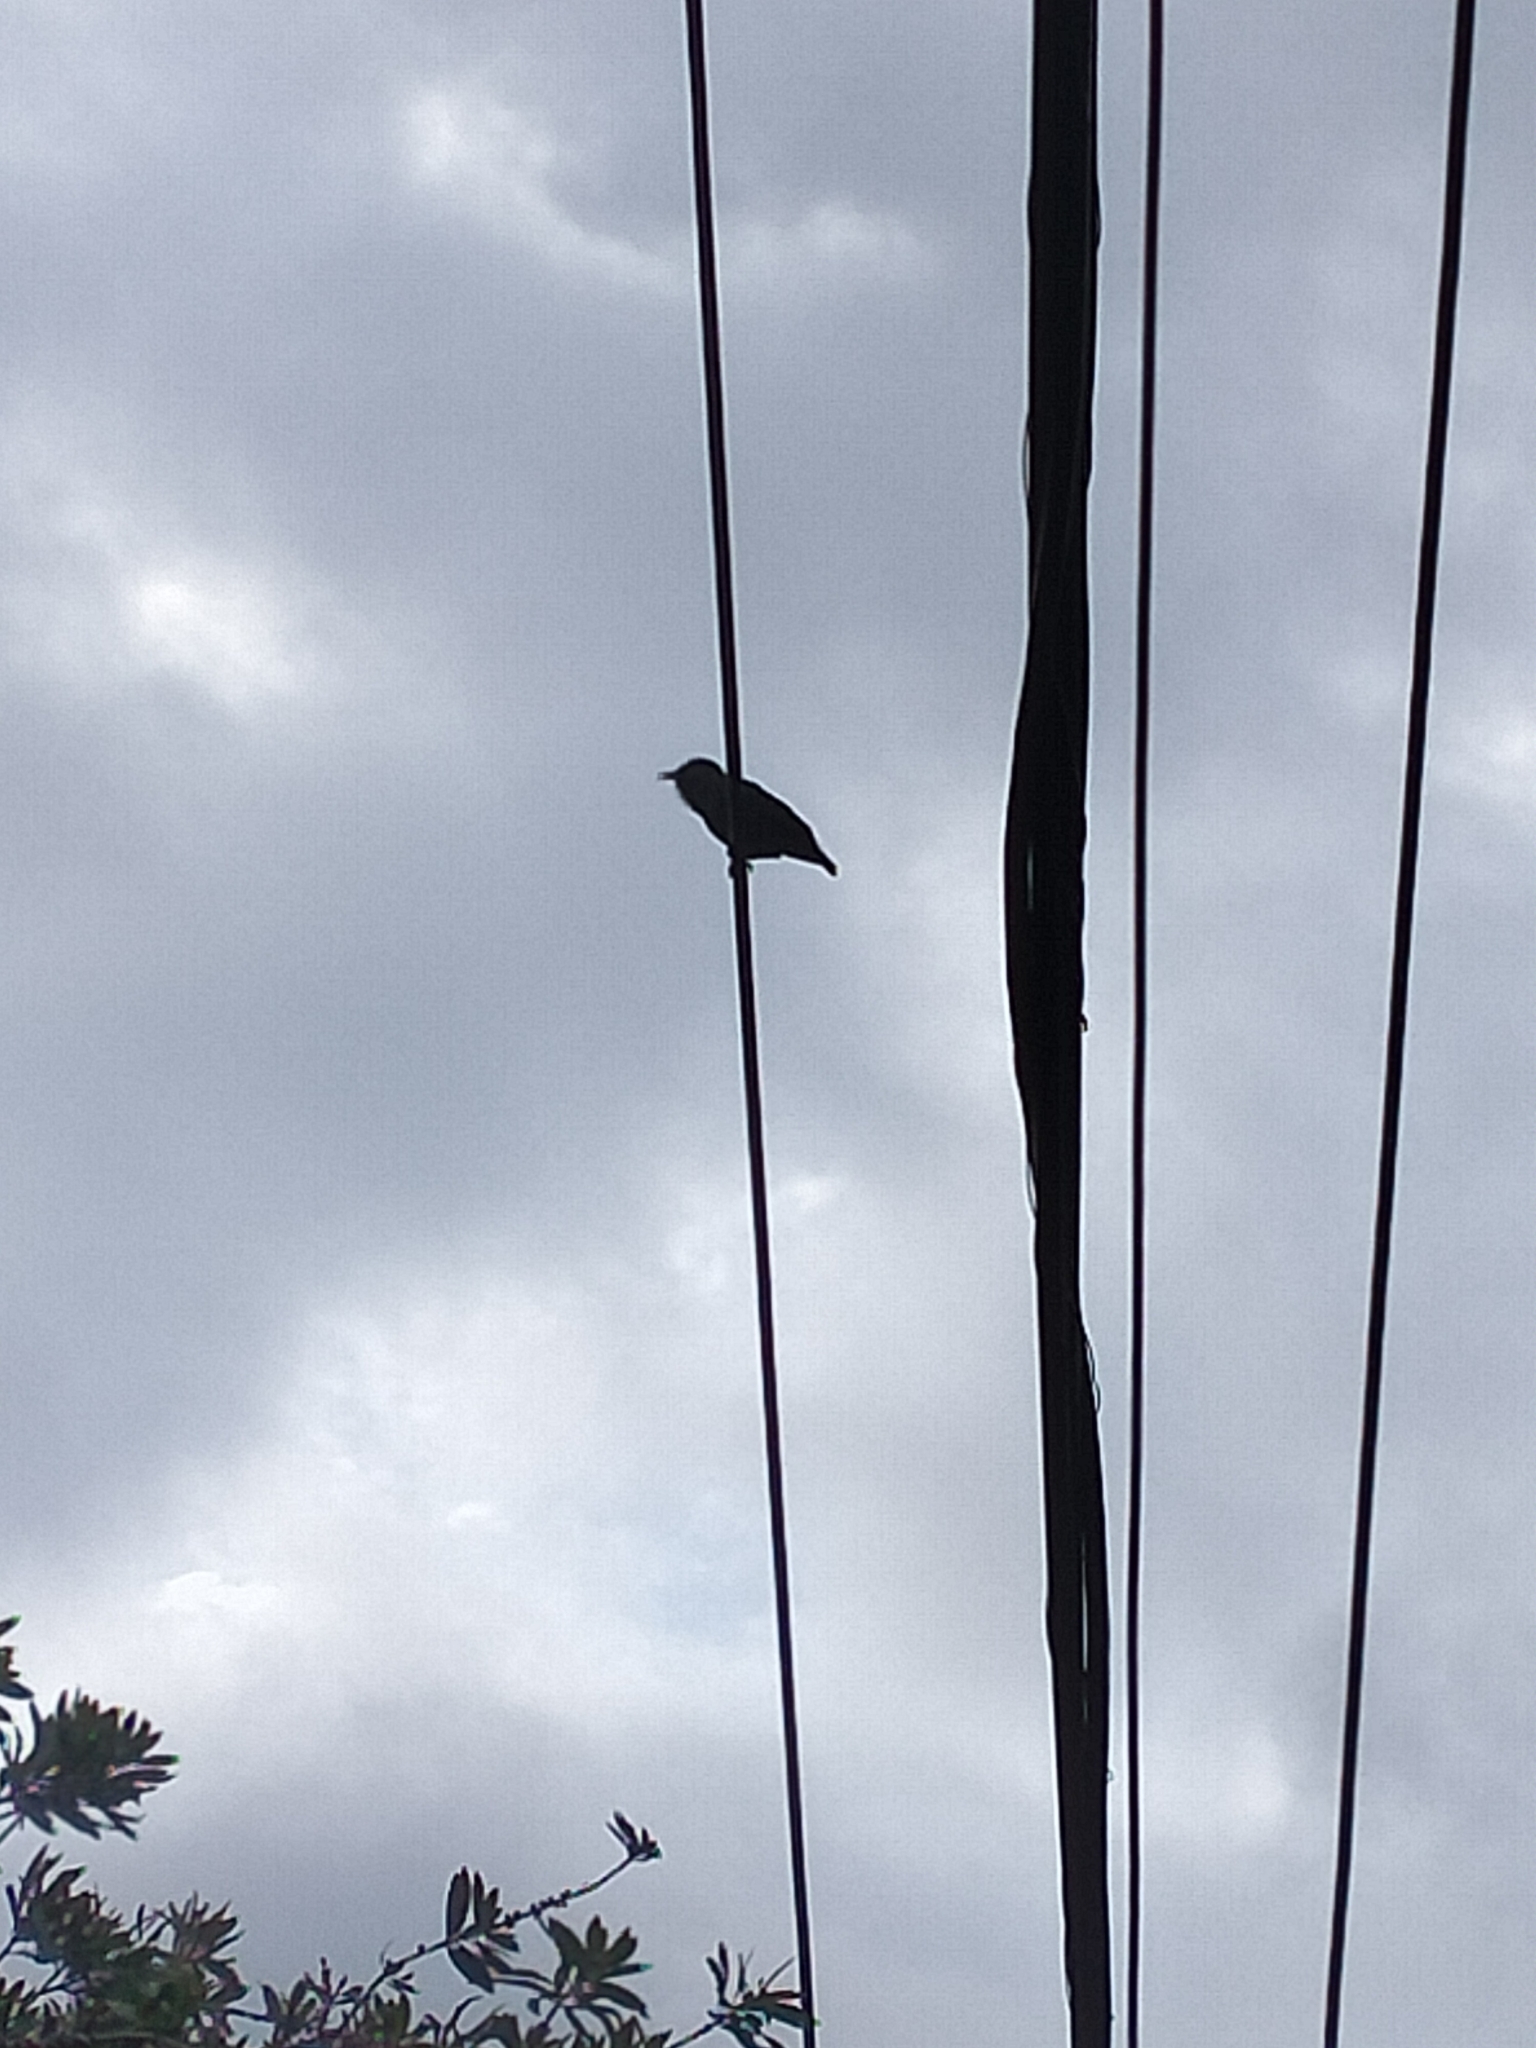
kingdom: Animalia
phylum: Chordata
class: Aves
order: Passeriformes
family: Sturnidae
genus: Sturnus
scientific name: Sturnus vulgaris
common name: Common starling
